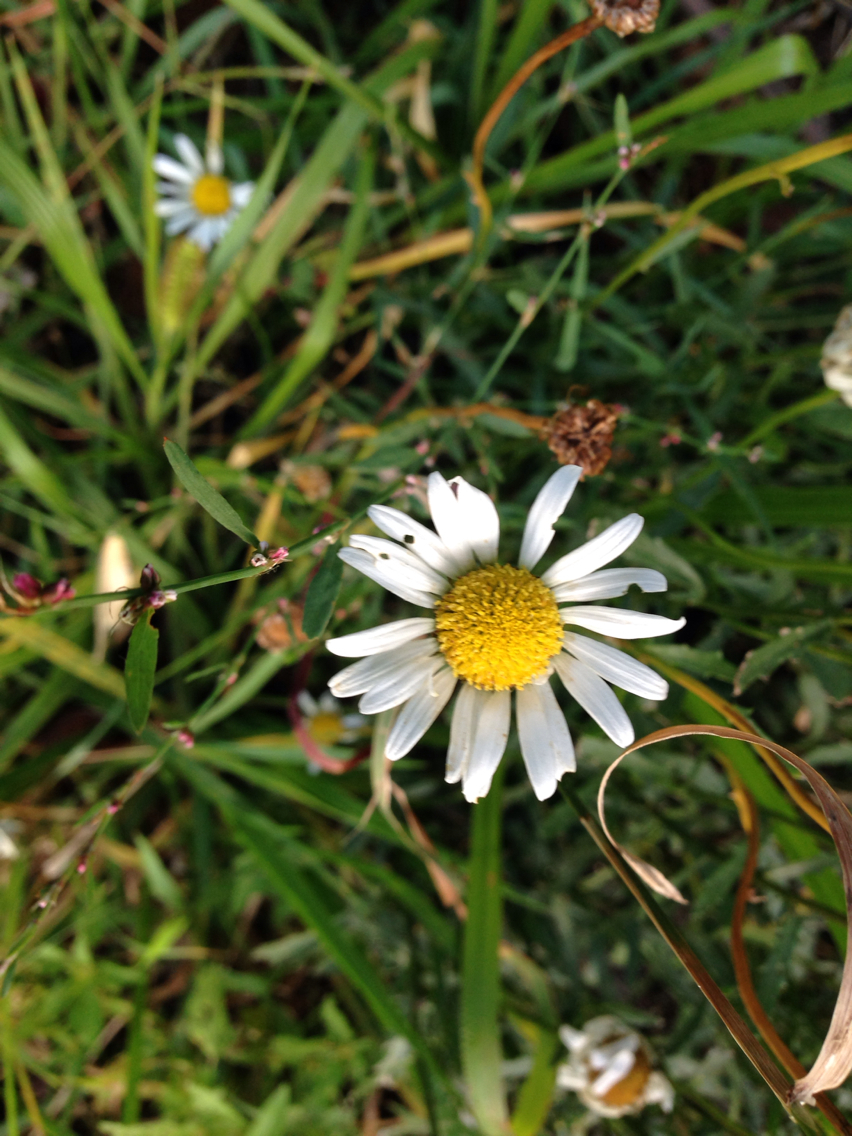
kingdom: Plantae
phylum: Tracheophyta
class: Magnoliopsida
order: Asterales
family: Asteraceae
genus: Leucanthemum
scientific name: Leucanthemum vulgare
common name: Oxeye daisy
